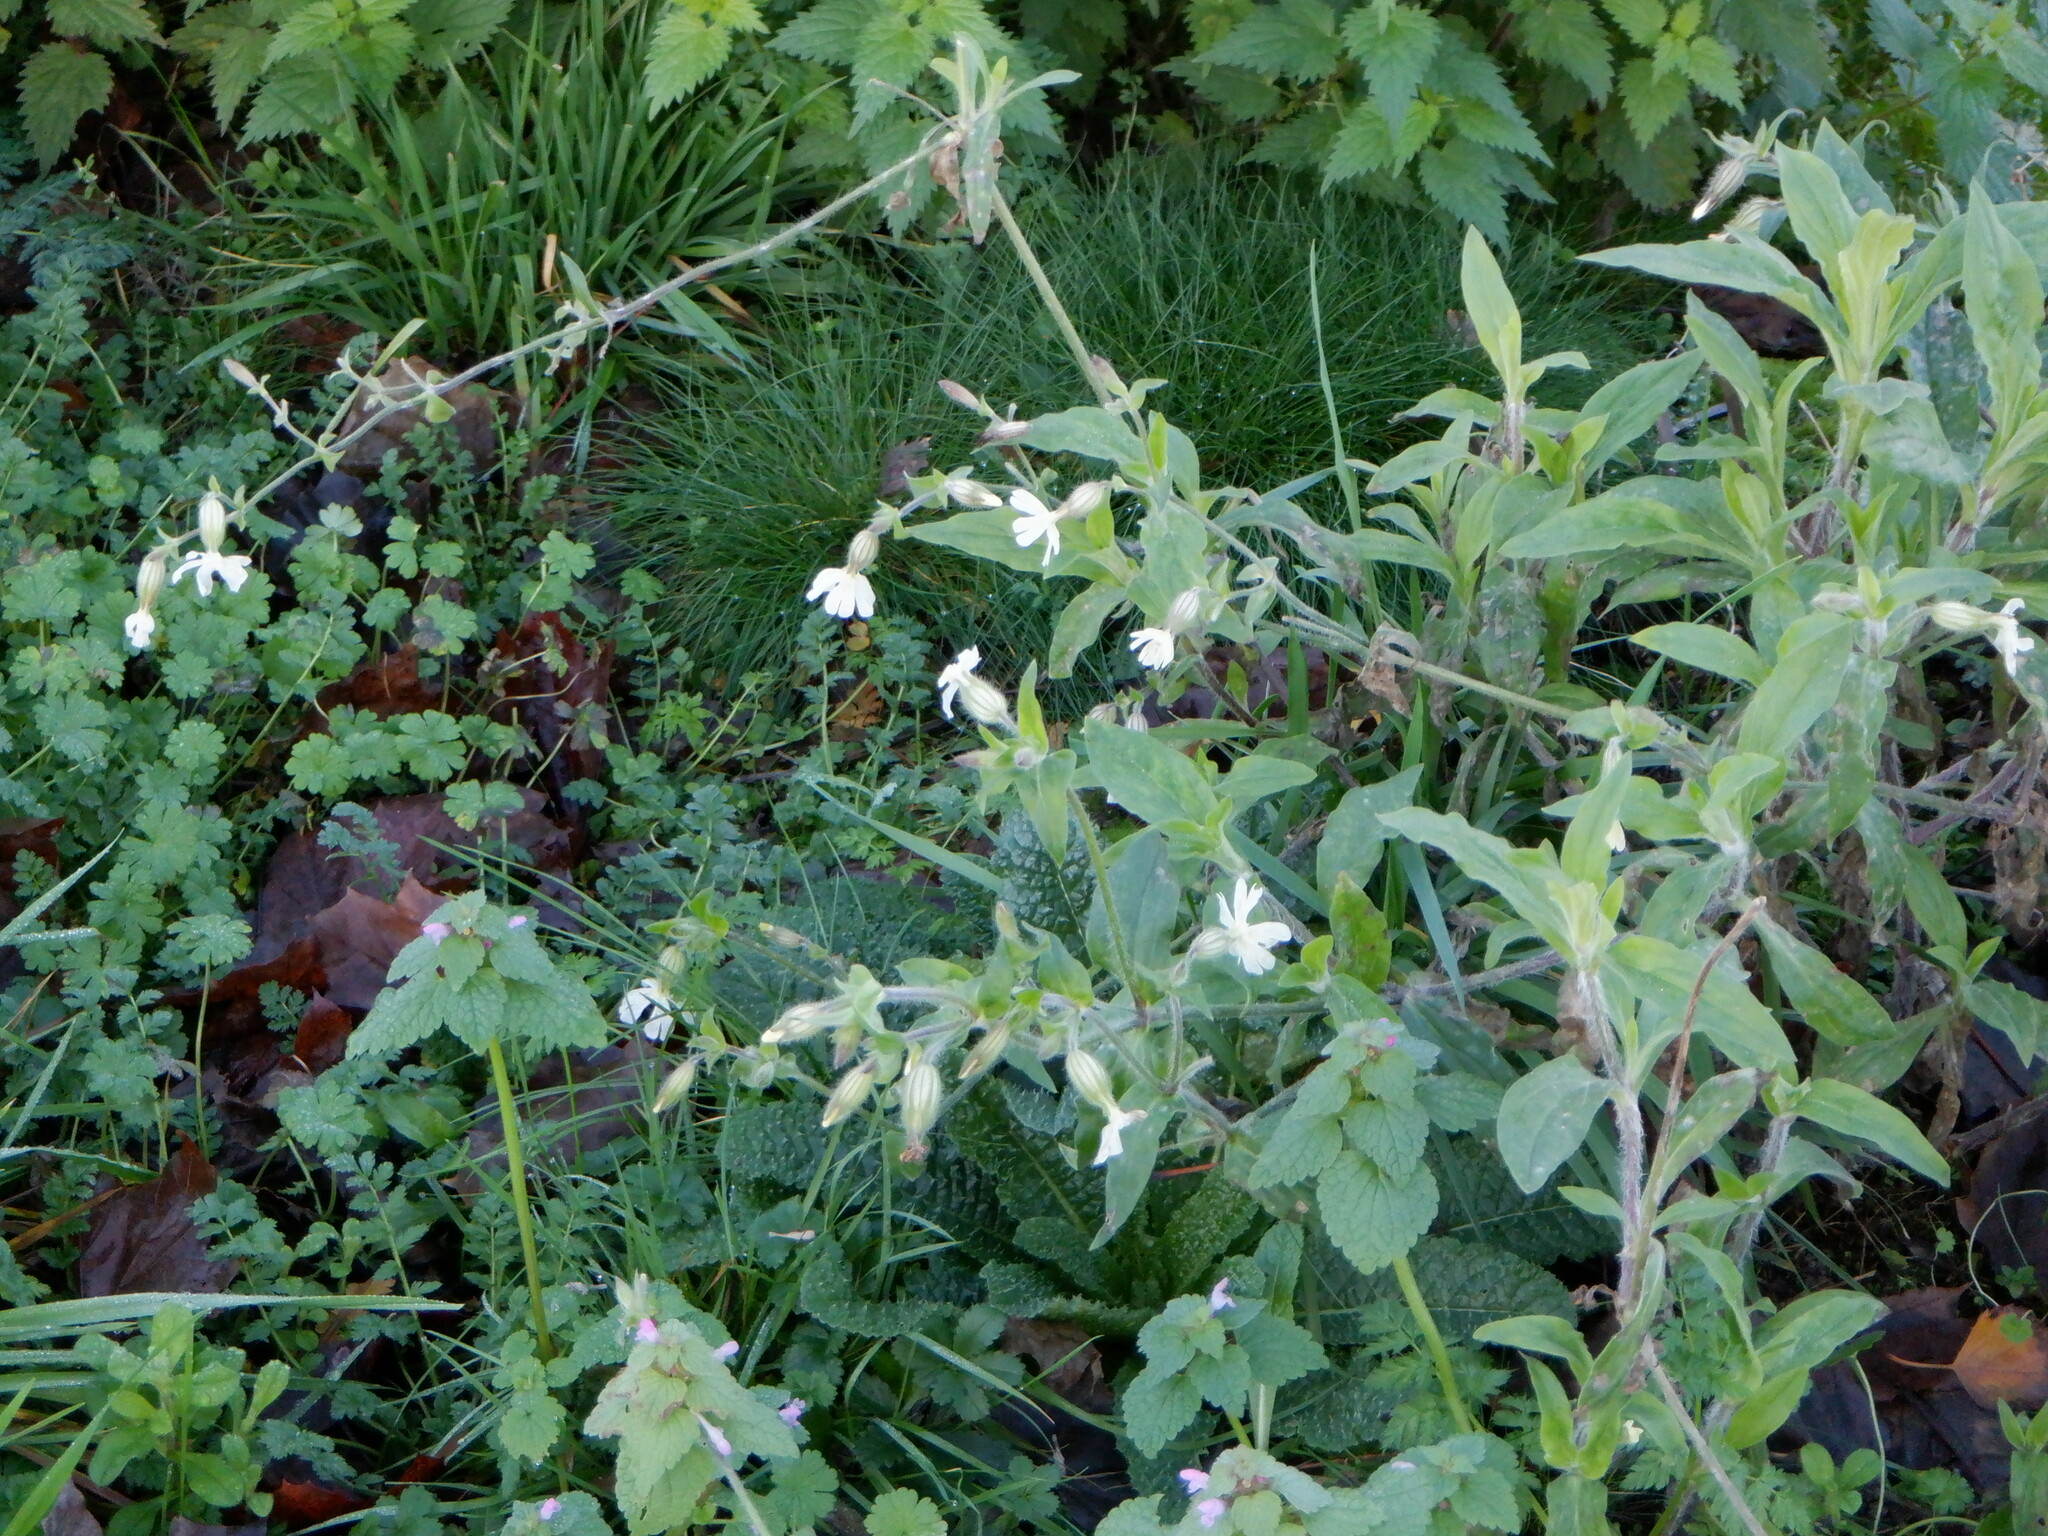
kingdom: Plantae
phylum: Tracheophyta
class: Magnoliopsida
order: Caryophyllales
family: Caryophyllaceae
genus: Silene
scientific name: Silene latifolia
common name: White campion
